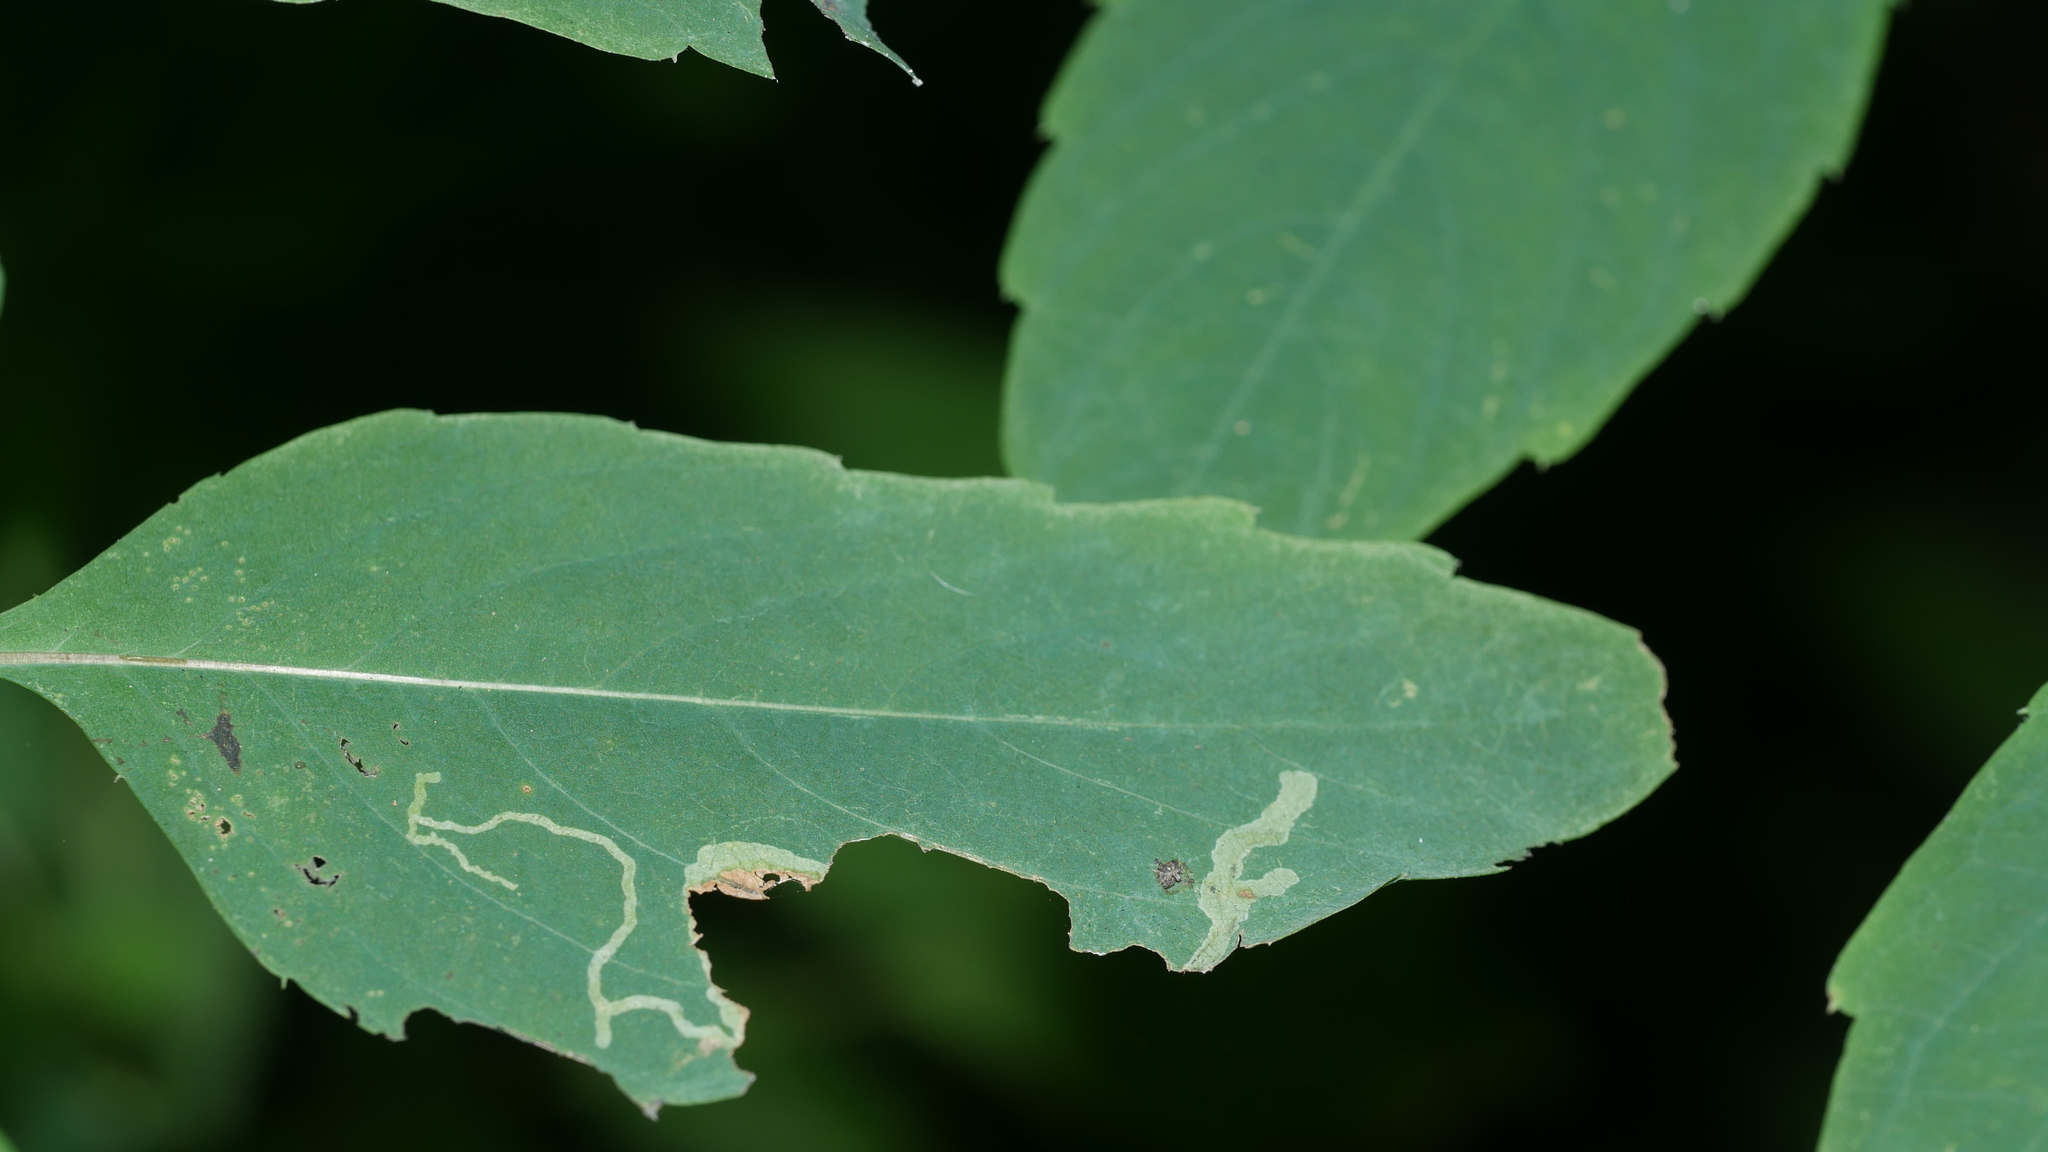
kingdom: Animalia
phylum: Arthropoda
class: Insecta
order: Diptera
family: Agromyzidae
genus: Phytoliriomyza
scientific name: Phytoliriomyza melampyga
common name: Jewelweed leaf-miner fly
